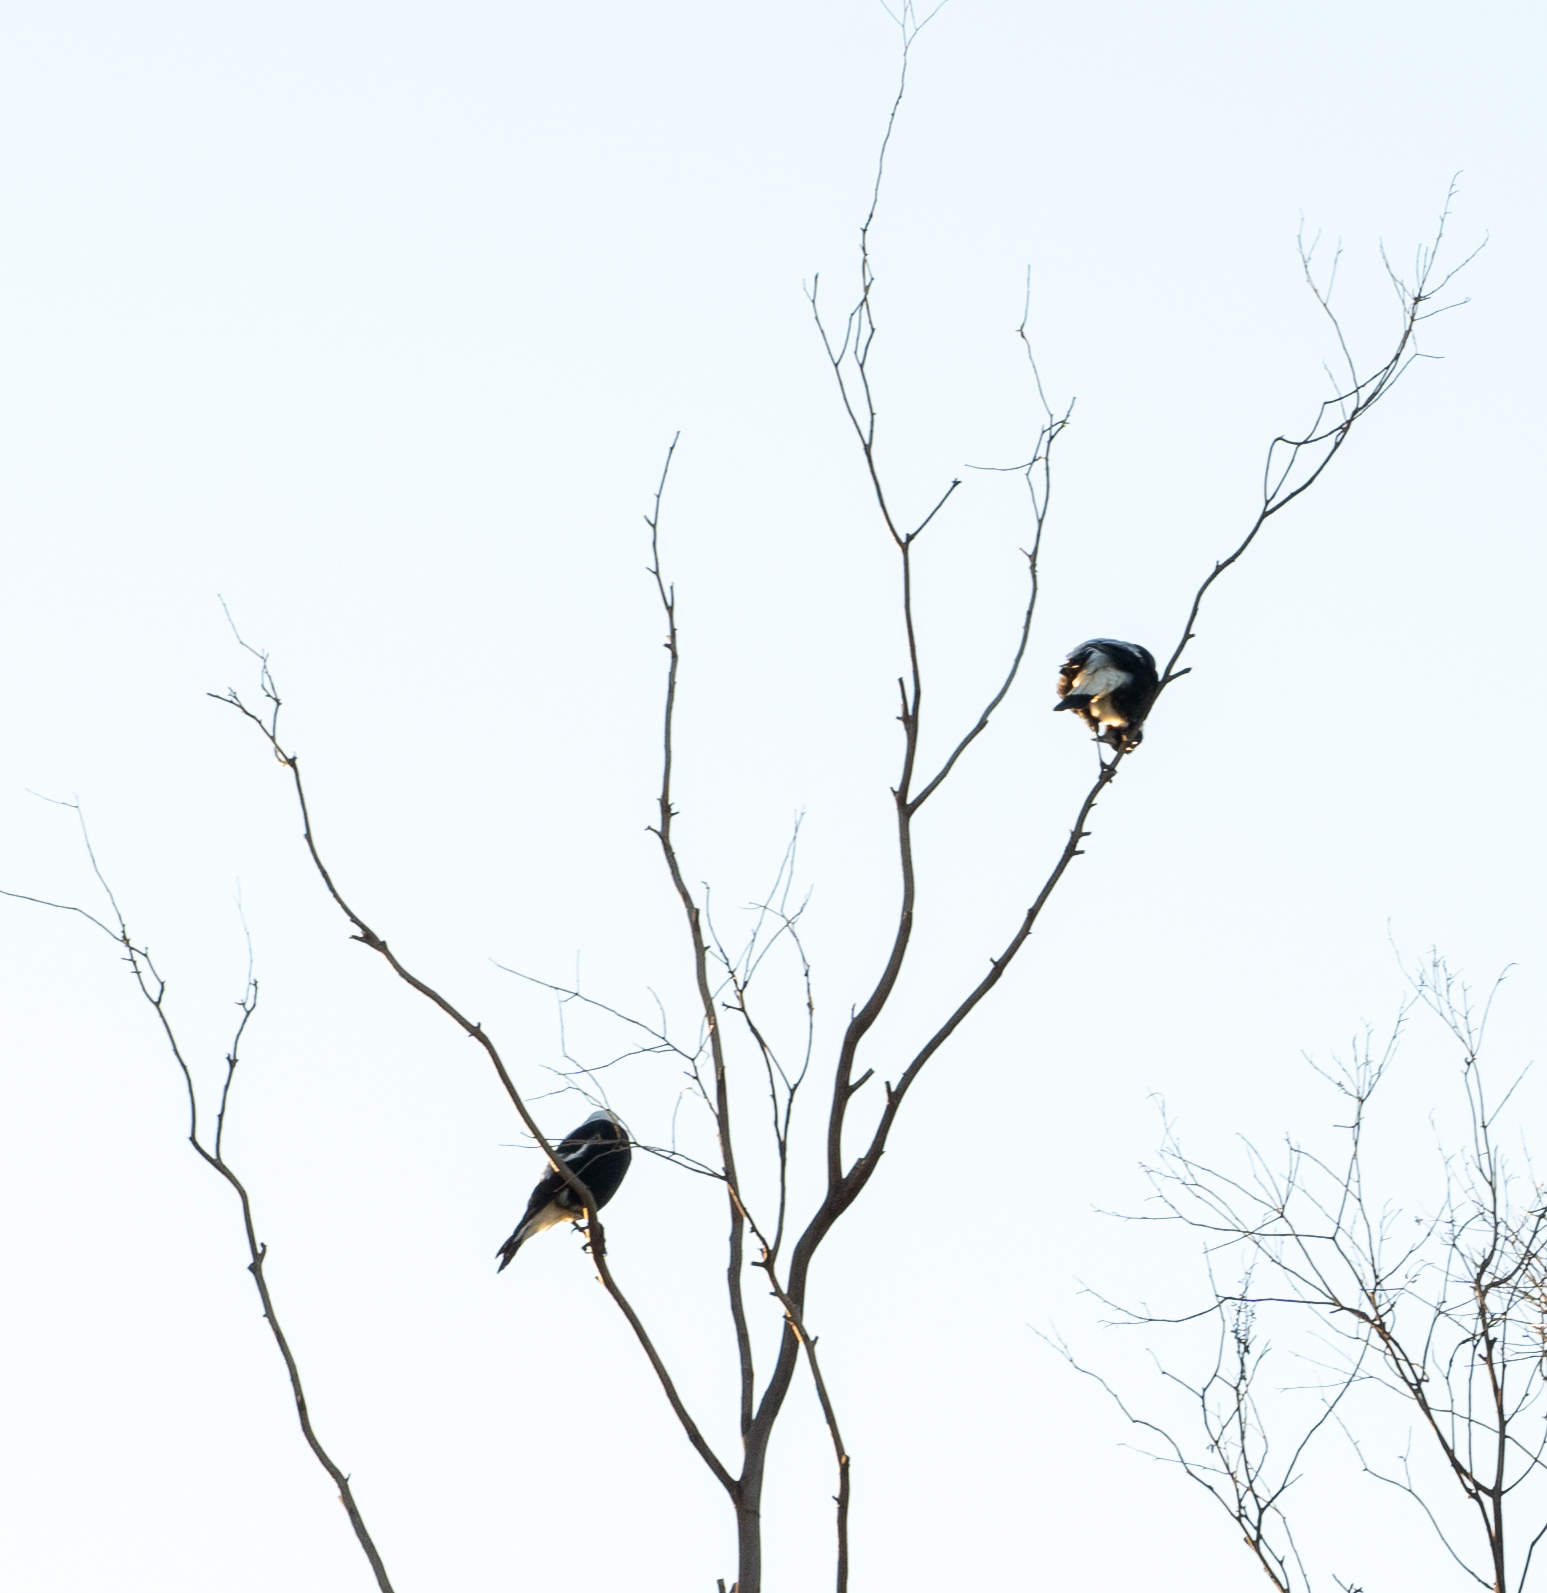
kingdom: Animalia
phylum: Chordata
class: Aves
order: Passeriformes
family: Cracticidae
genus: Gymnorhina
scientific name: Gymnorhina tibicen
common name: Australian magpie
